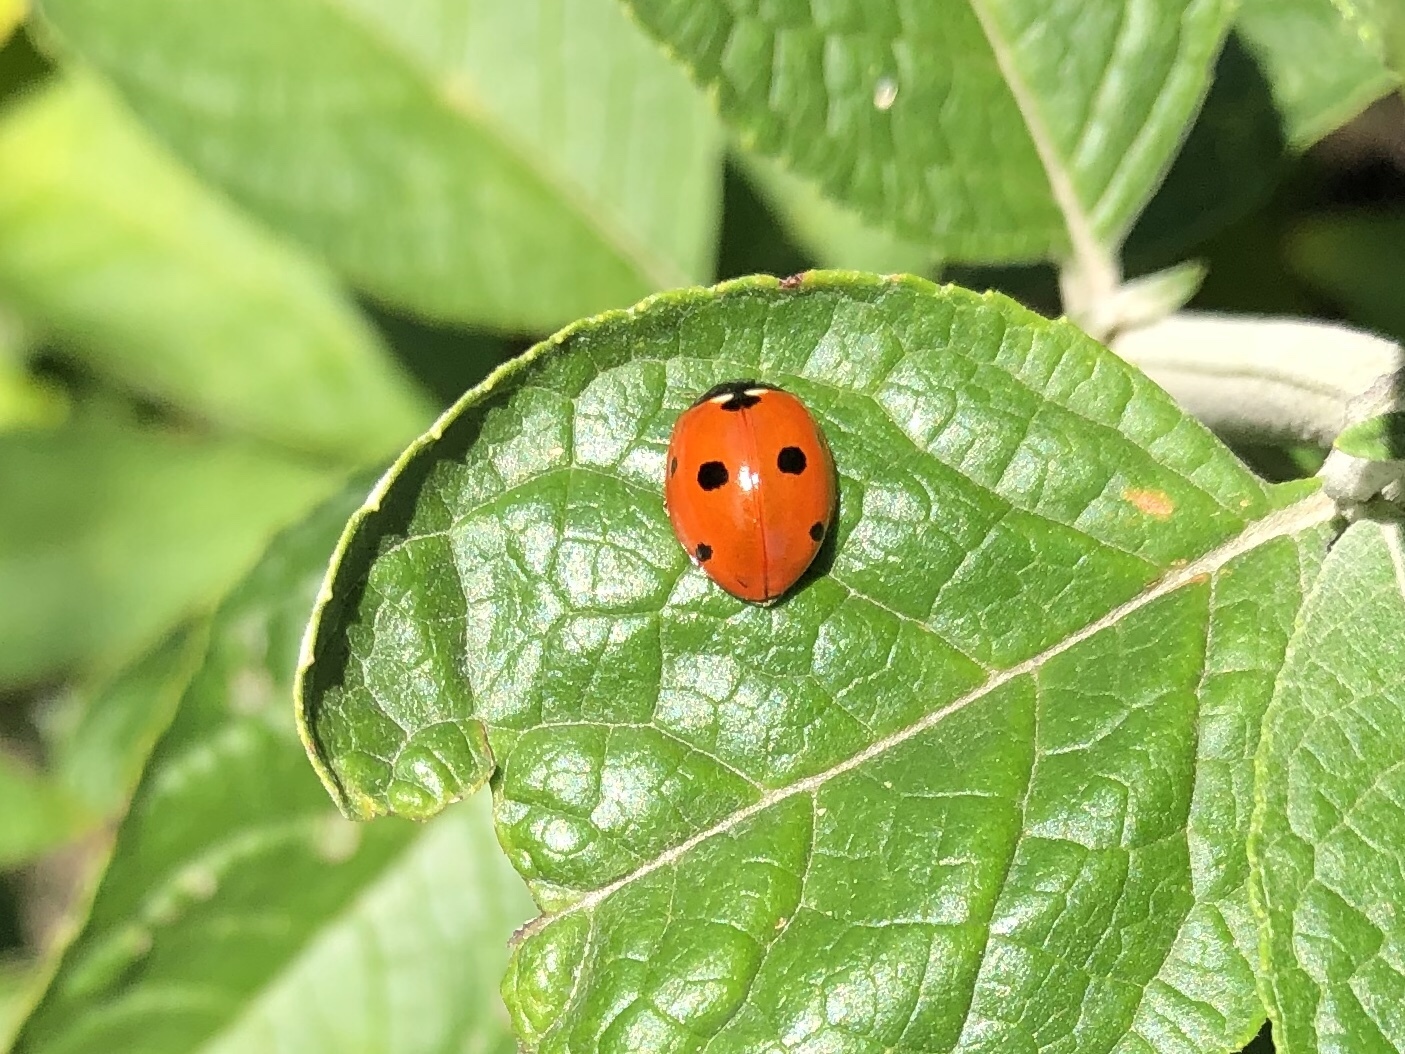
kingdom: Animalia
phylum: Arthropoda
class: Insecta
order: Coleoptera
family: Coccinellidae
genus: Coccinella
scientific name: Coccinella septempunctata
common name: Sevenspotted lady beetle
